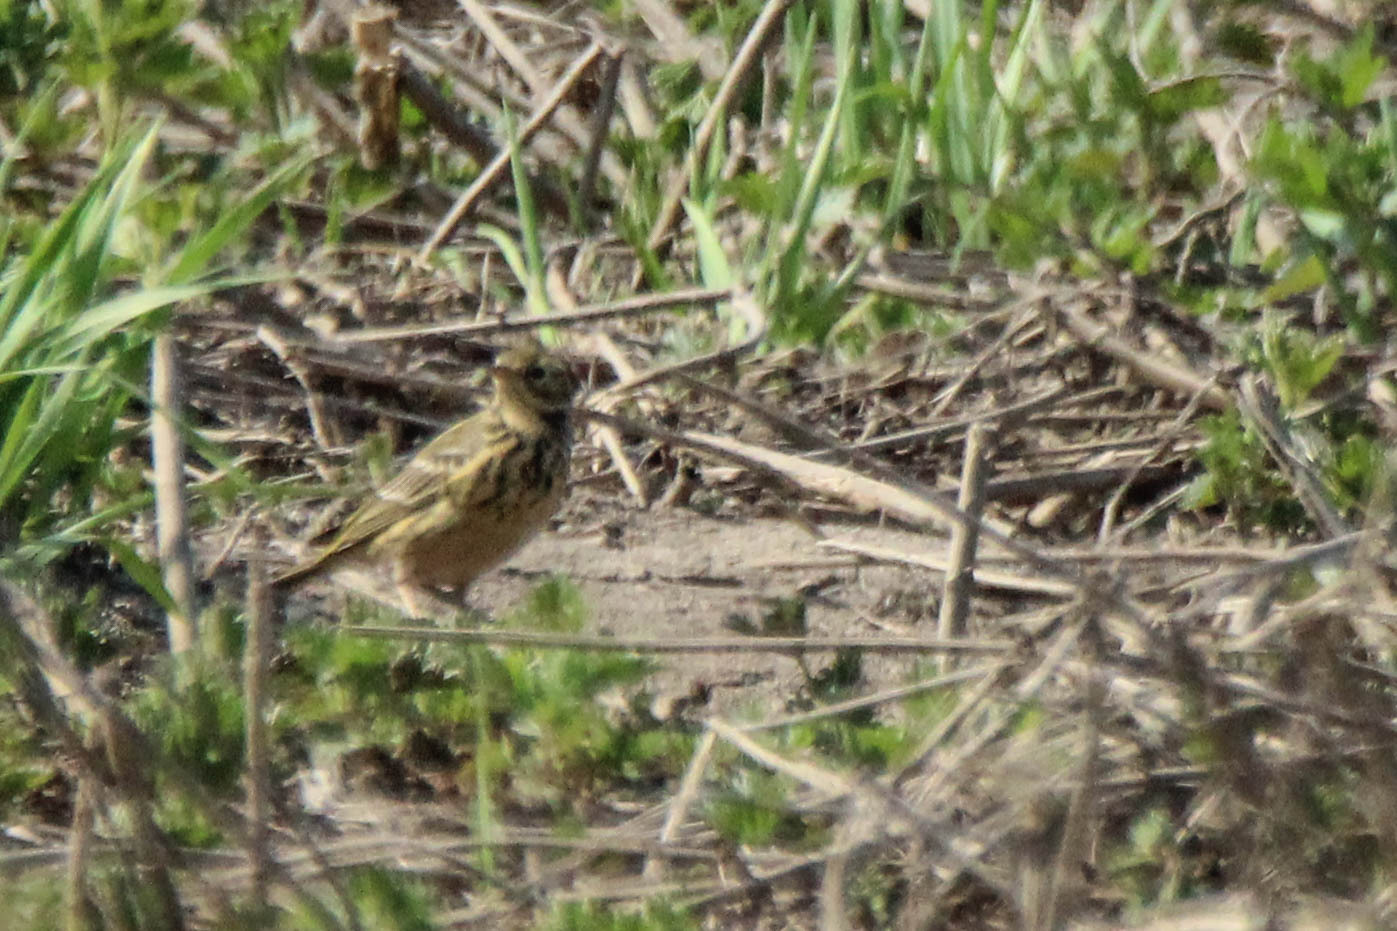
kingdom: Animalia
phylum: Chordata
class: Aves
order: Passeriformes
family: Motacillidae
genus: Anthus
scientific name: Anthus pratensis
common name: Meadow pipit
